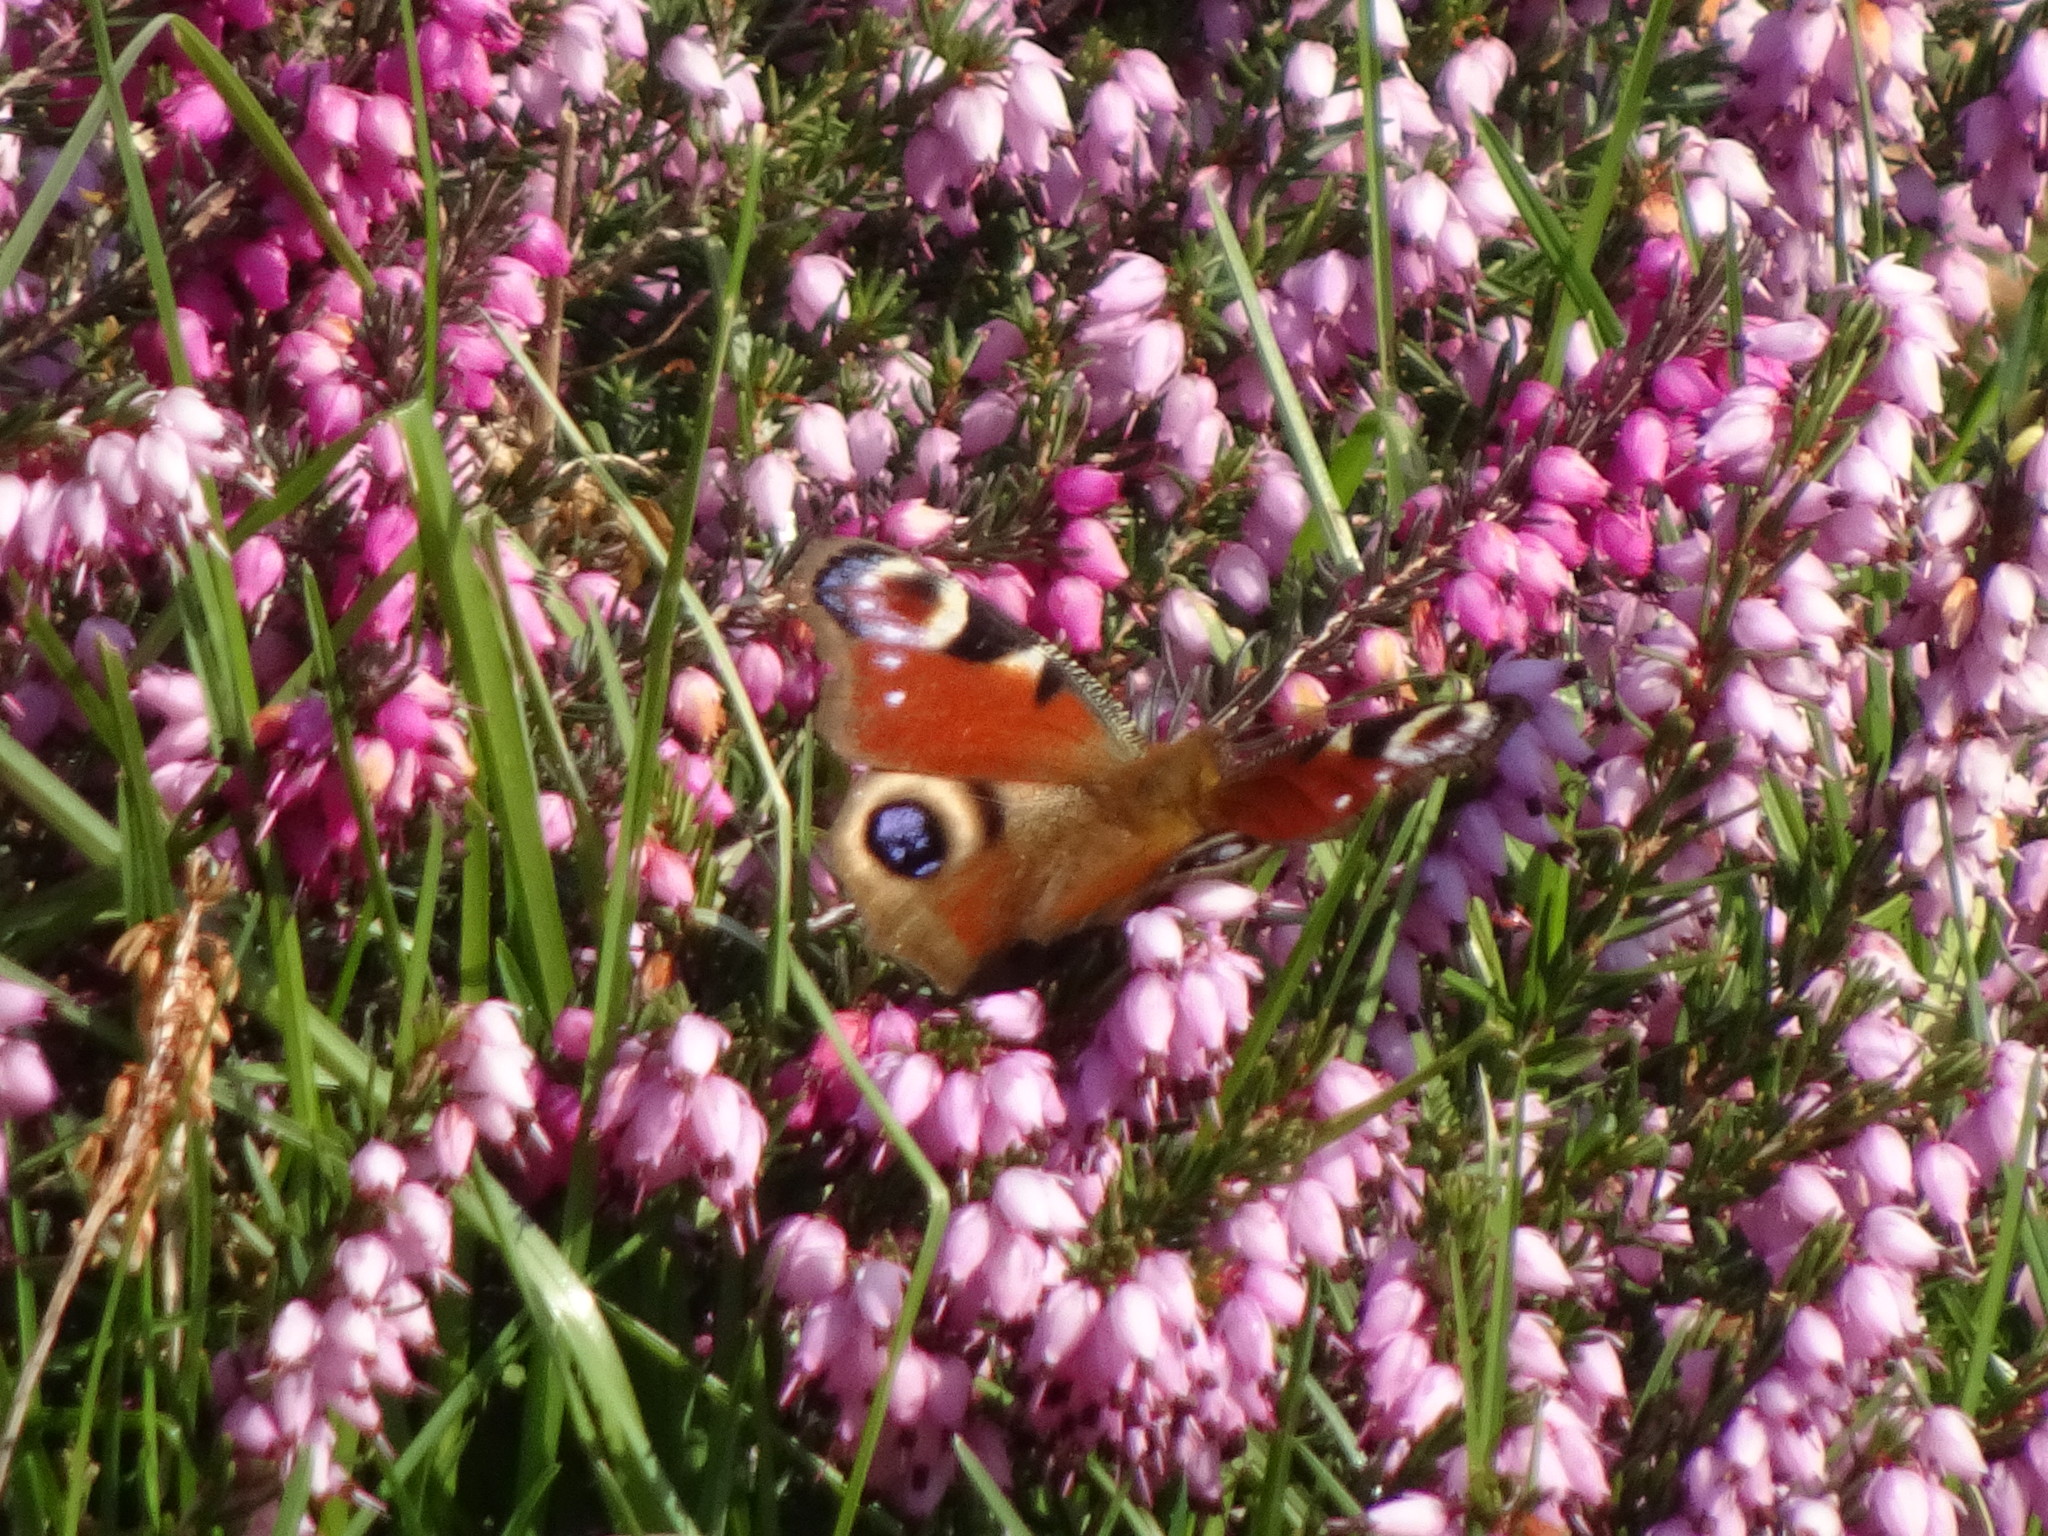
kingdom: Animalia
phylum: Arthropoda
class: Insecta
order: Lepidoptera
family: Nymphalidae
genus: Aglais
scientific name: Aglais io
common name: Peacock
